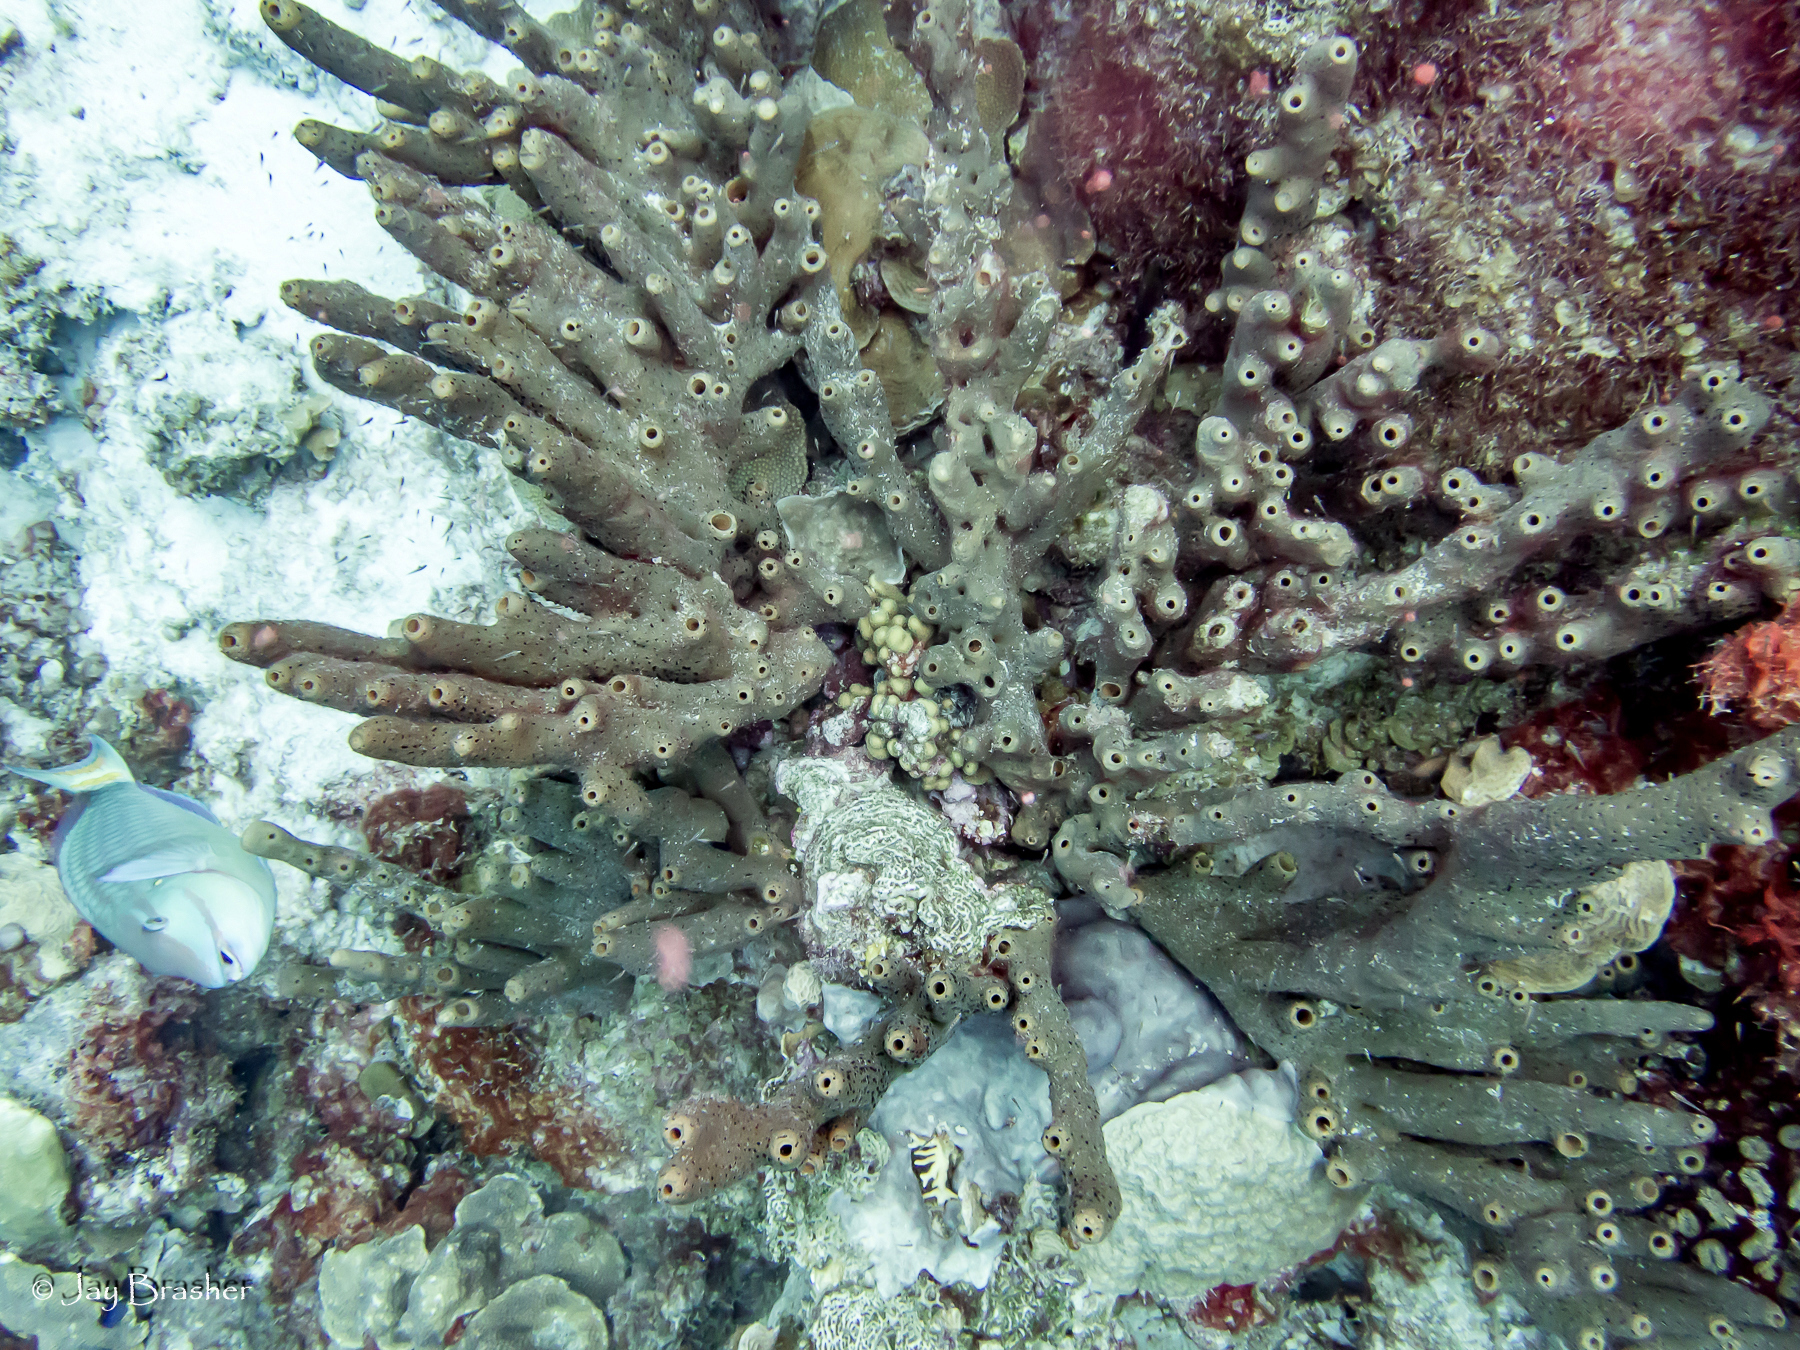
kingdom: Animalia
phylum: Porifera
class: Demospongiae
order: Agelasida
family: Agelasidae
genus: Agelas
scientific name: Agelas conifera
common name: Brown tube sponge
